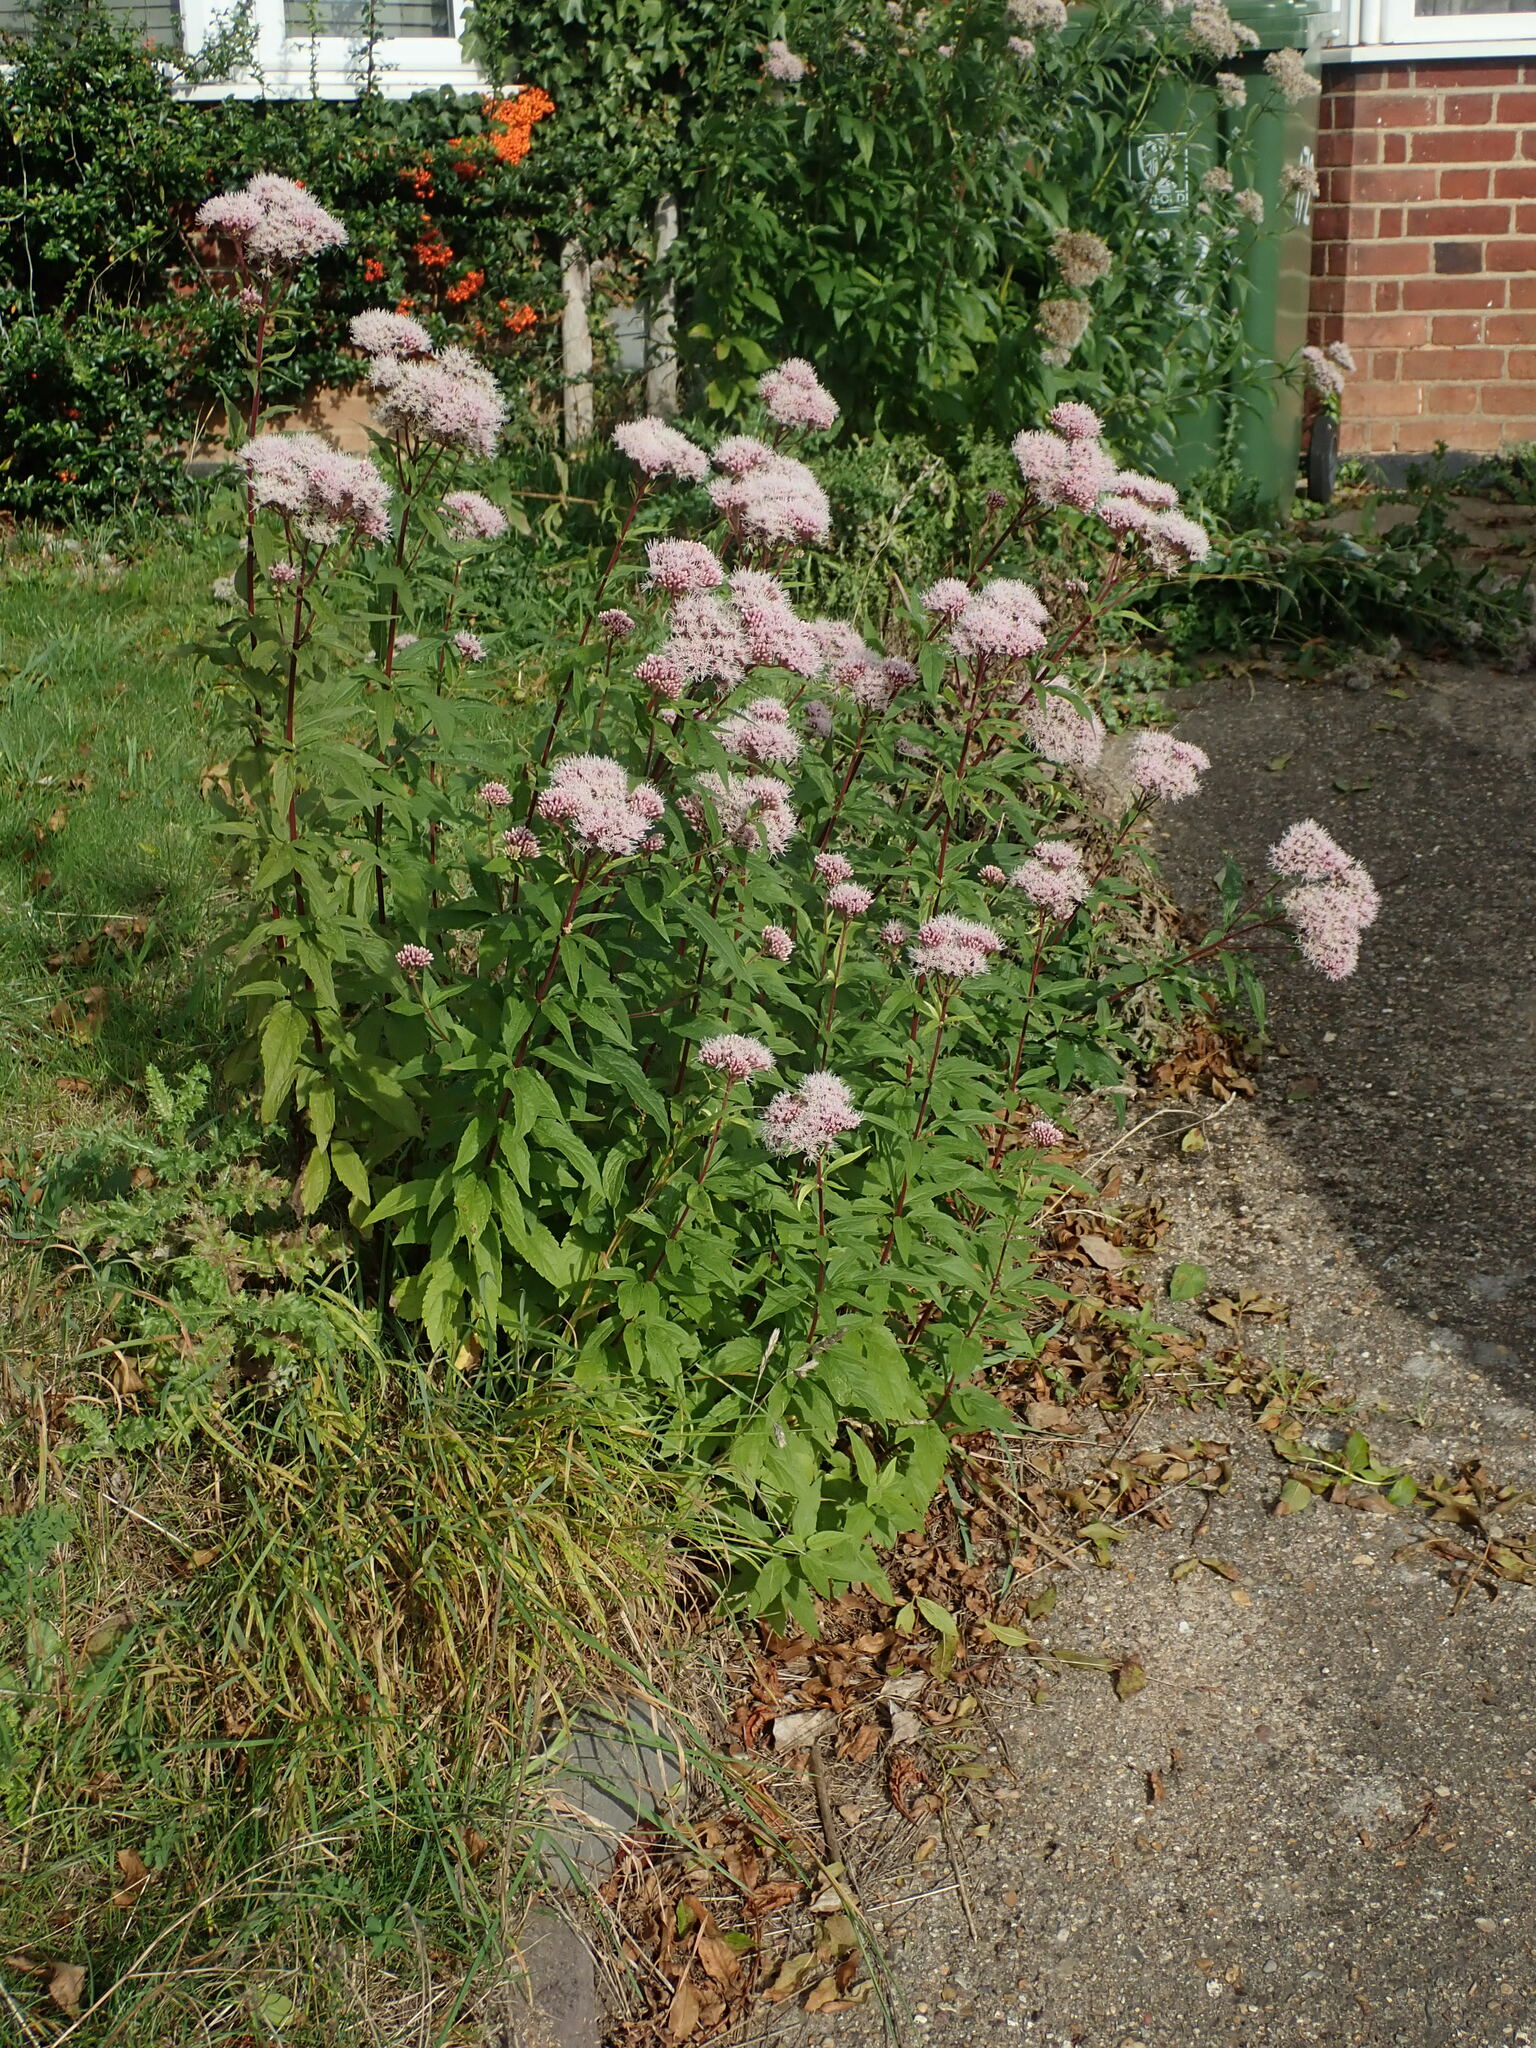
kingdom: Plantae
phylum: Tracheophyta
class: Magnoliopsida
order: Asterales
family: Asteraceae
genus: Eupatorium
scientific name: Eupatorium cannabinum
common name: Hemp-agrimony
